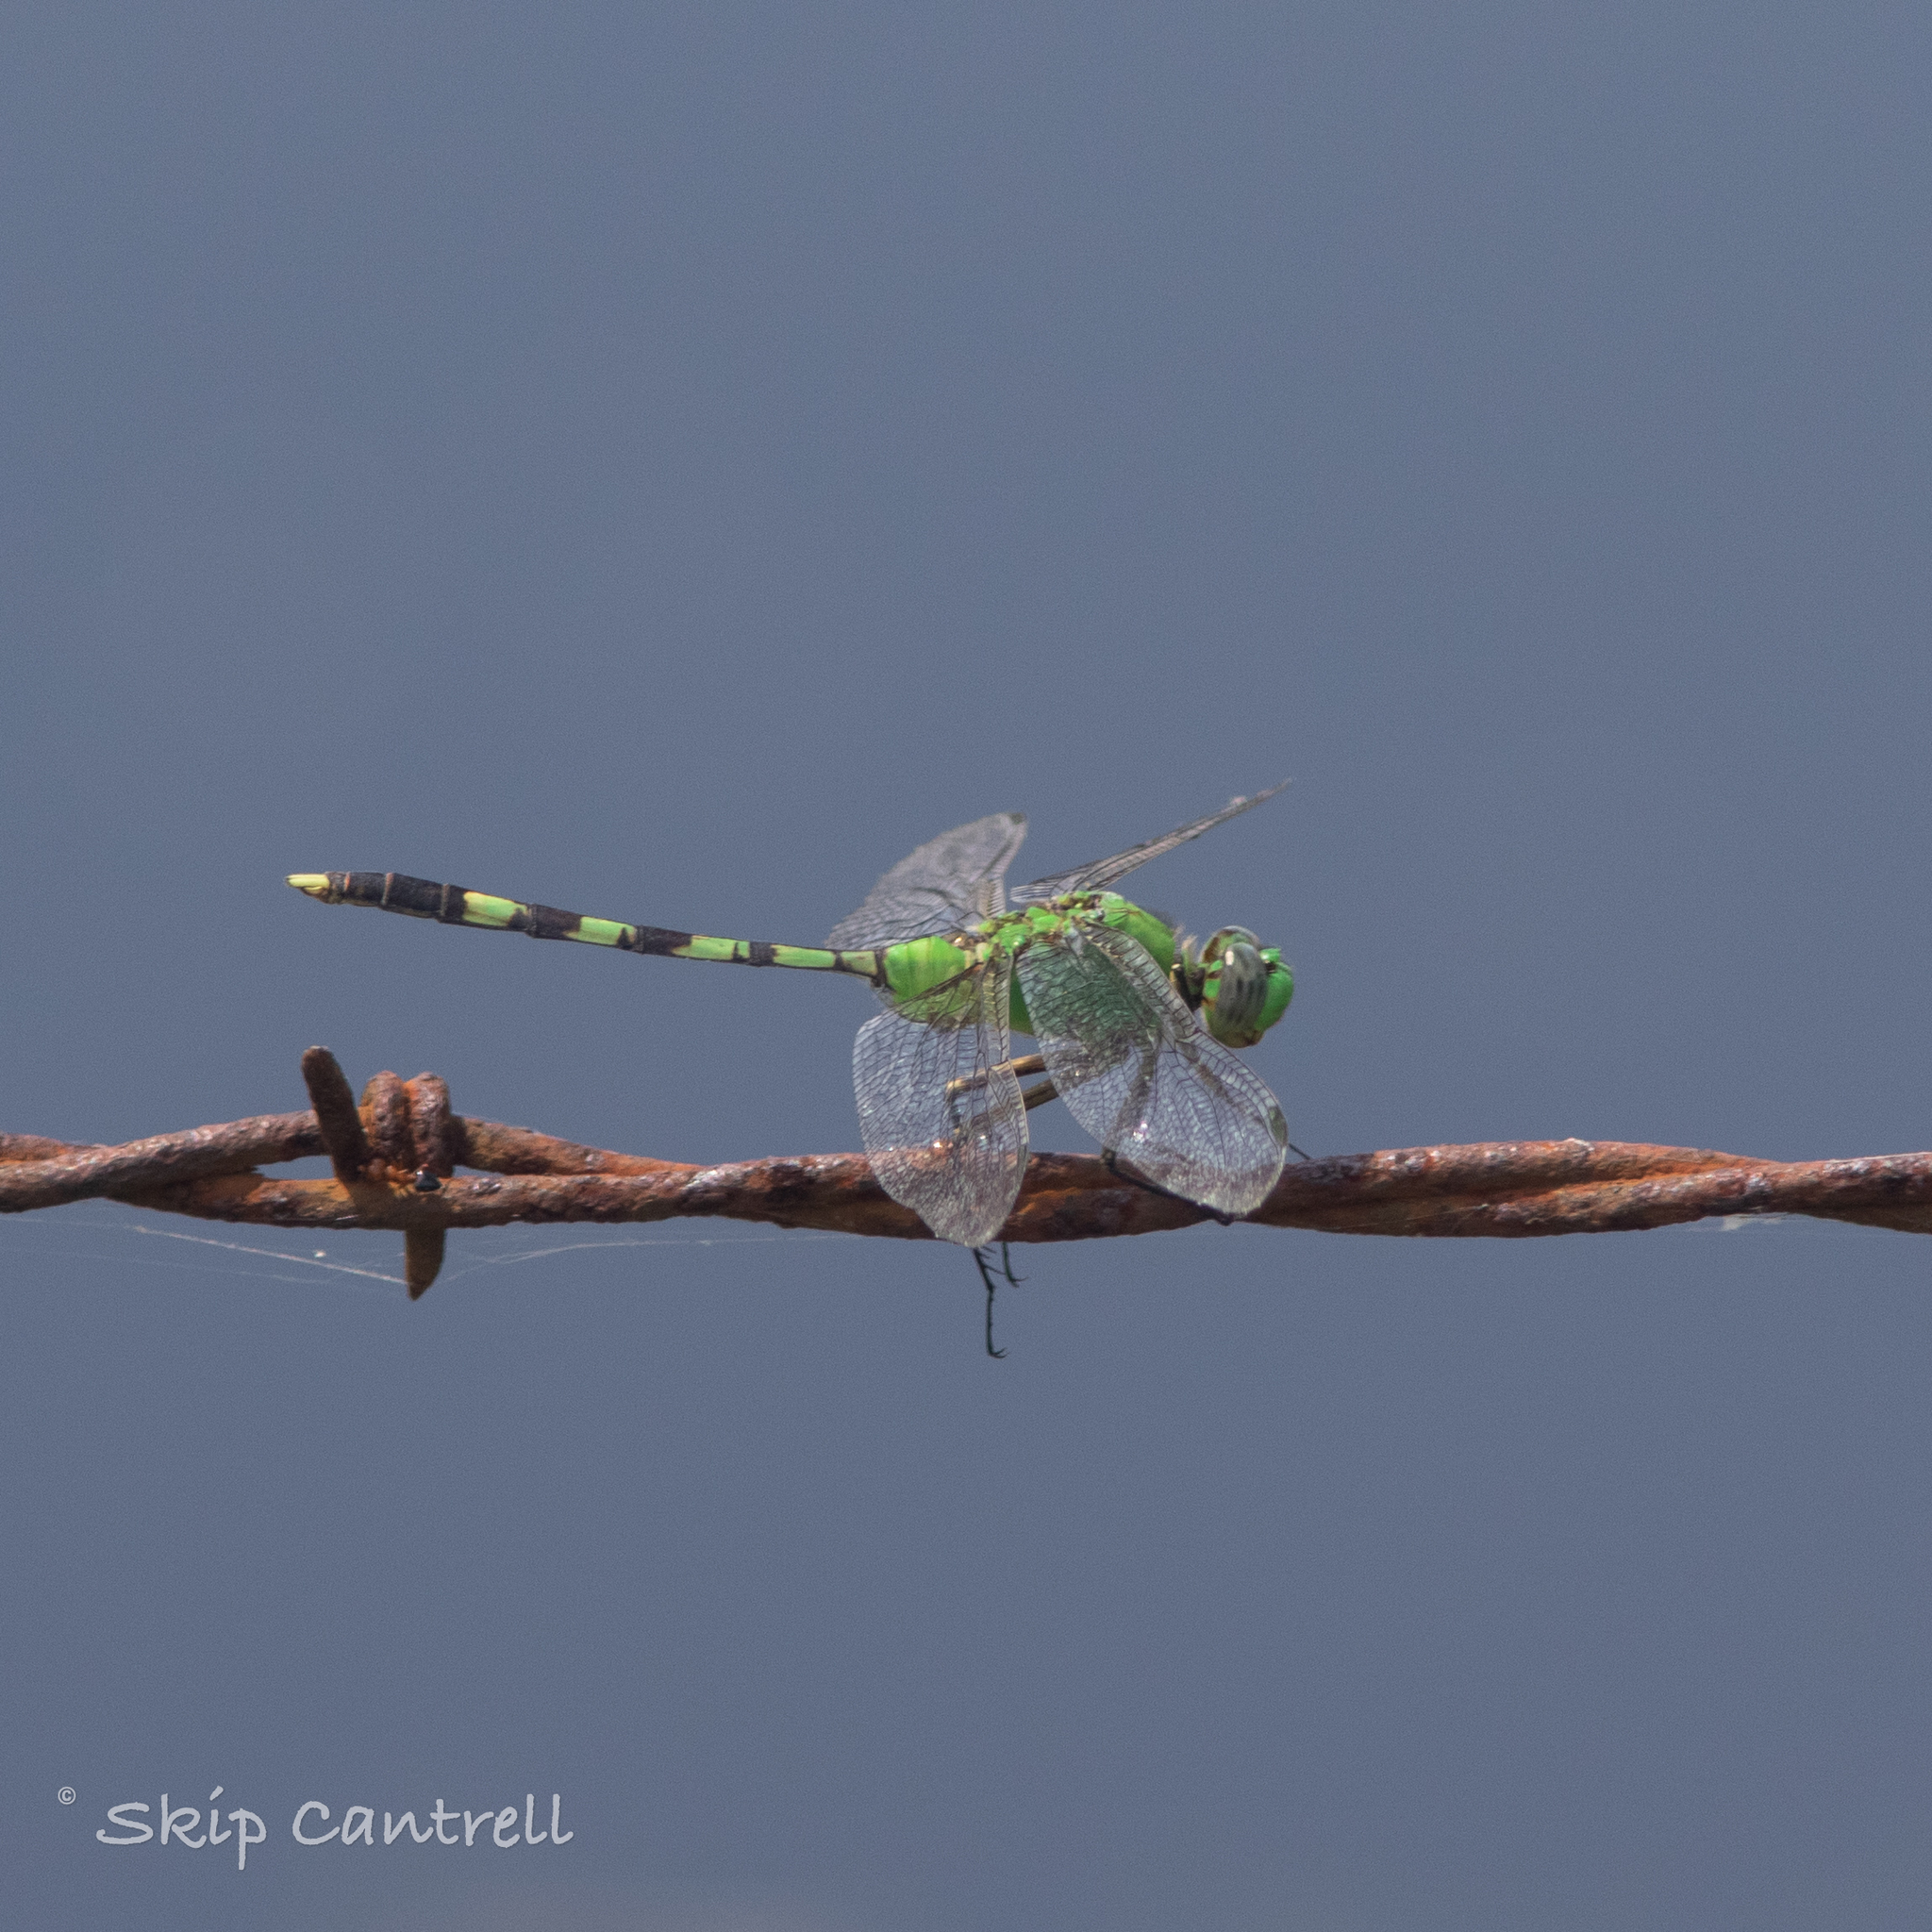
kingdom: Animalia
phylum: Arthropoda
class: Insecta
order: Odonata
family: Libellulidae
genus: Erythemis
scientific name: Erythemis vesiculosa
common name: Great pondhawk
